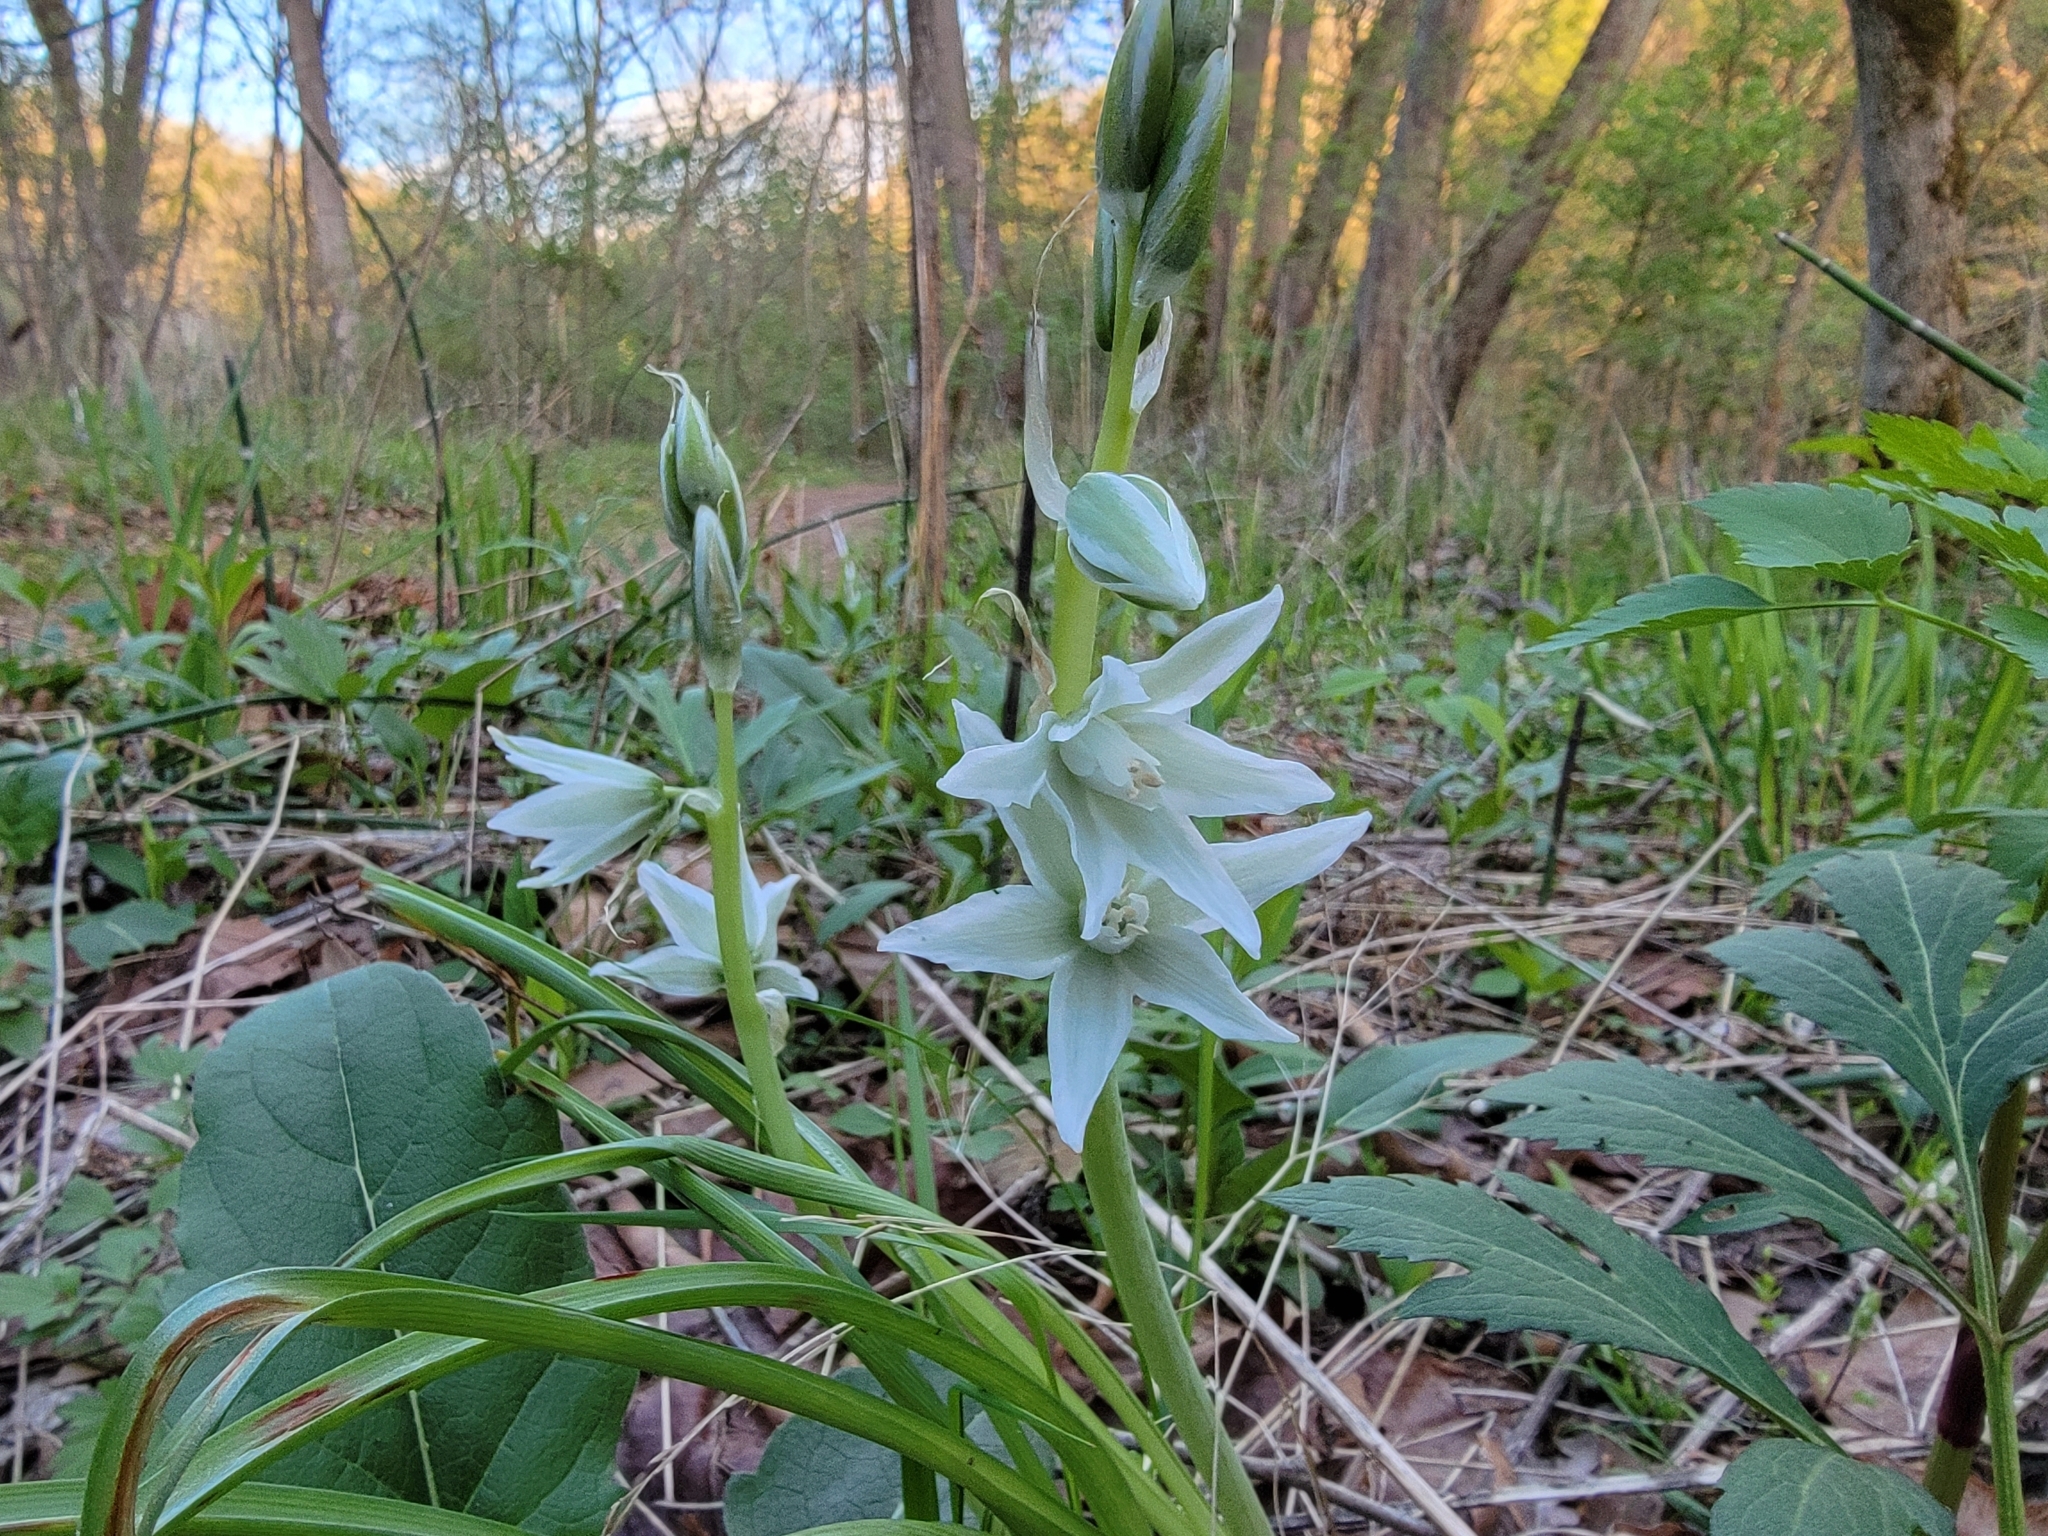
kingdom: Plantae
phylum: Tracheophyta
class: Liliopsida
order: Asparagales
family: Asparagaceae
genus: Ornithogalum
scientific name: Ornithogalum nutans
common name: Drooping star-of-bethlehem
